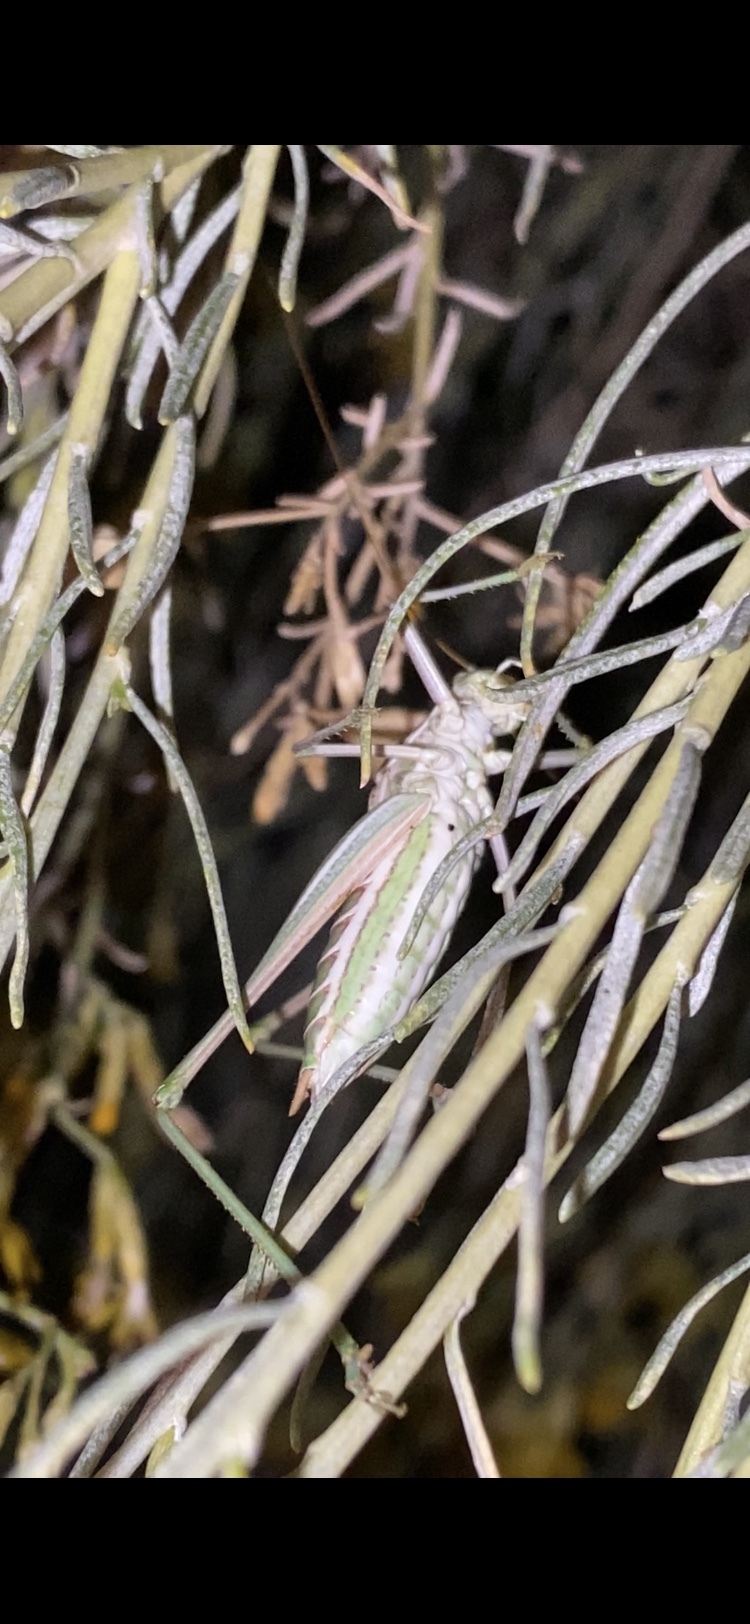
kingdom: Animalia
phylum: Arthropoda
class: Insecta
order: Orthoptera
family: Tettigoniidae
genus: Eremopedes
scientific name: Eremopedes bilineatus
